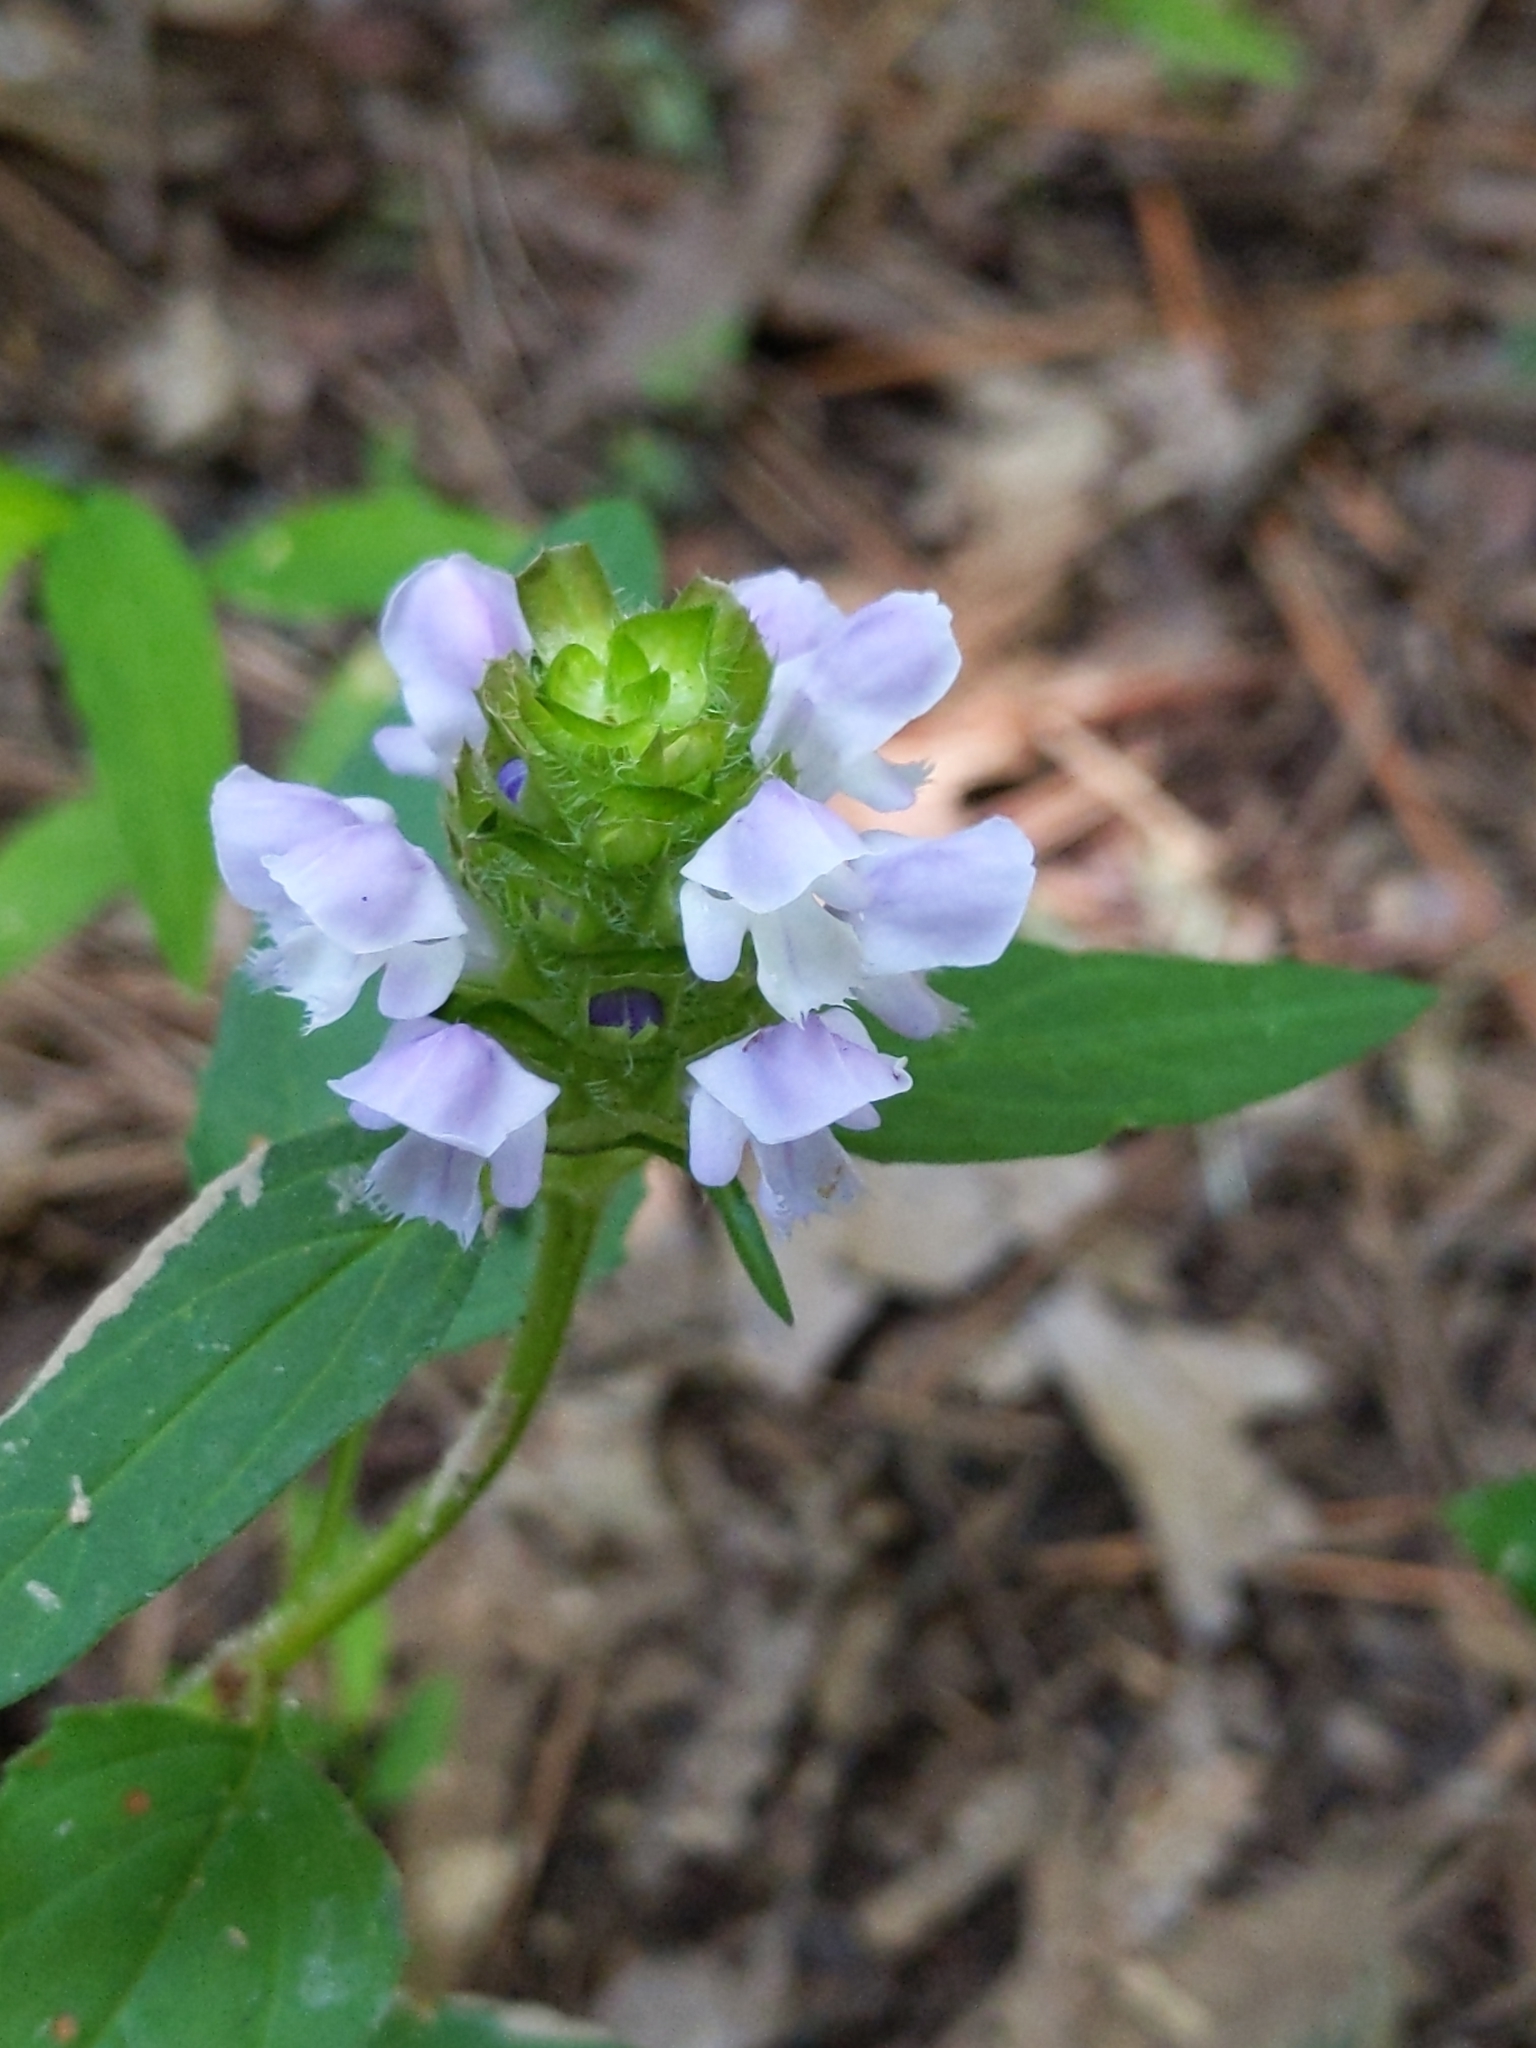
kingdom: Plantae
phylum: Tracheophyta
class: Magnoliopsida
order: Lamiales
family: Lamiaceae
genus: Prunella
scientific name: Prunella vulgaris
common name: Heal-all
